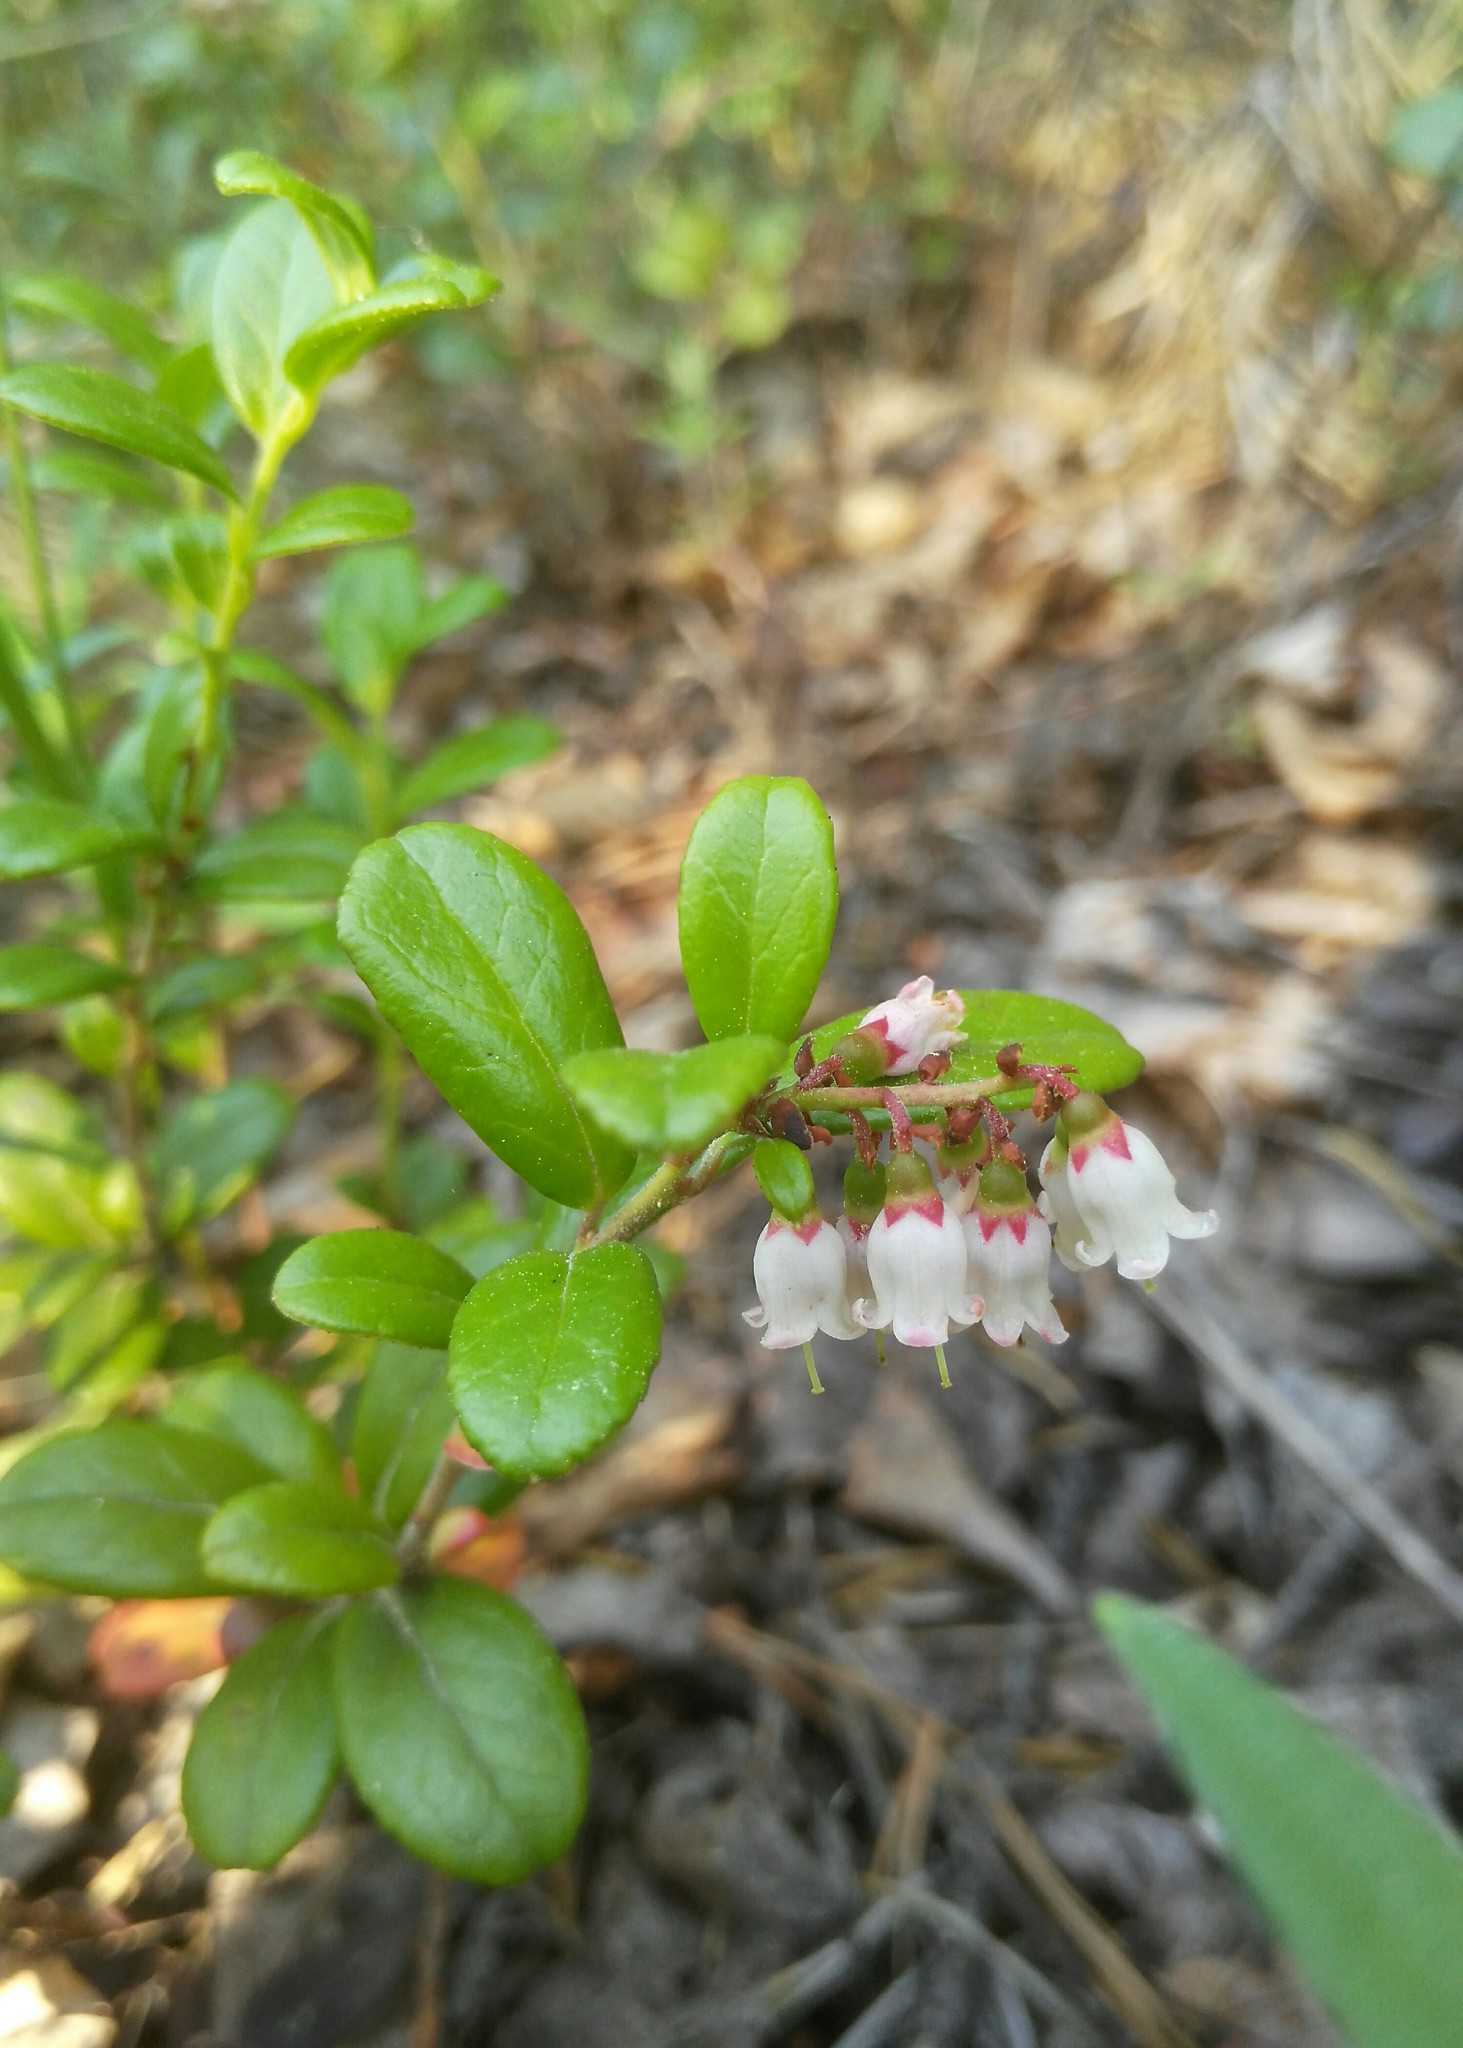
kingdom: Plantae
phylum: Tracheophyta
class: Magnoliopsida
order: Ericales
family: Ericaceae
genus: Vaccinium
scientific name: Vaccinium vitis-idaea
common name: Cowberry
